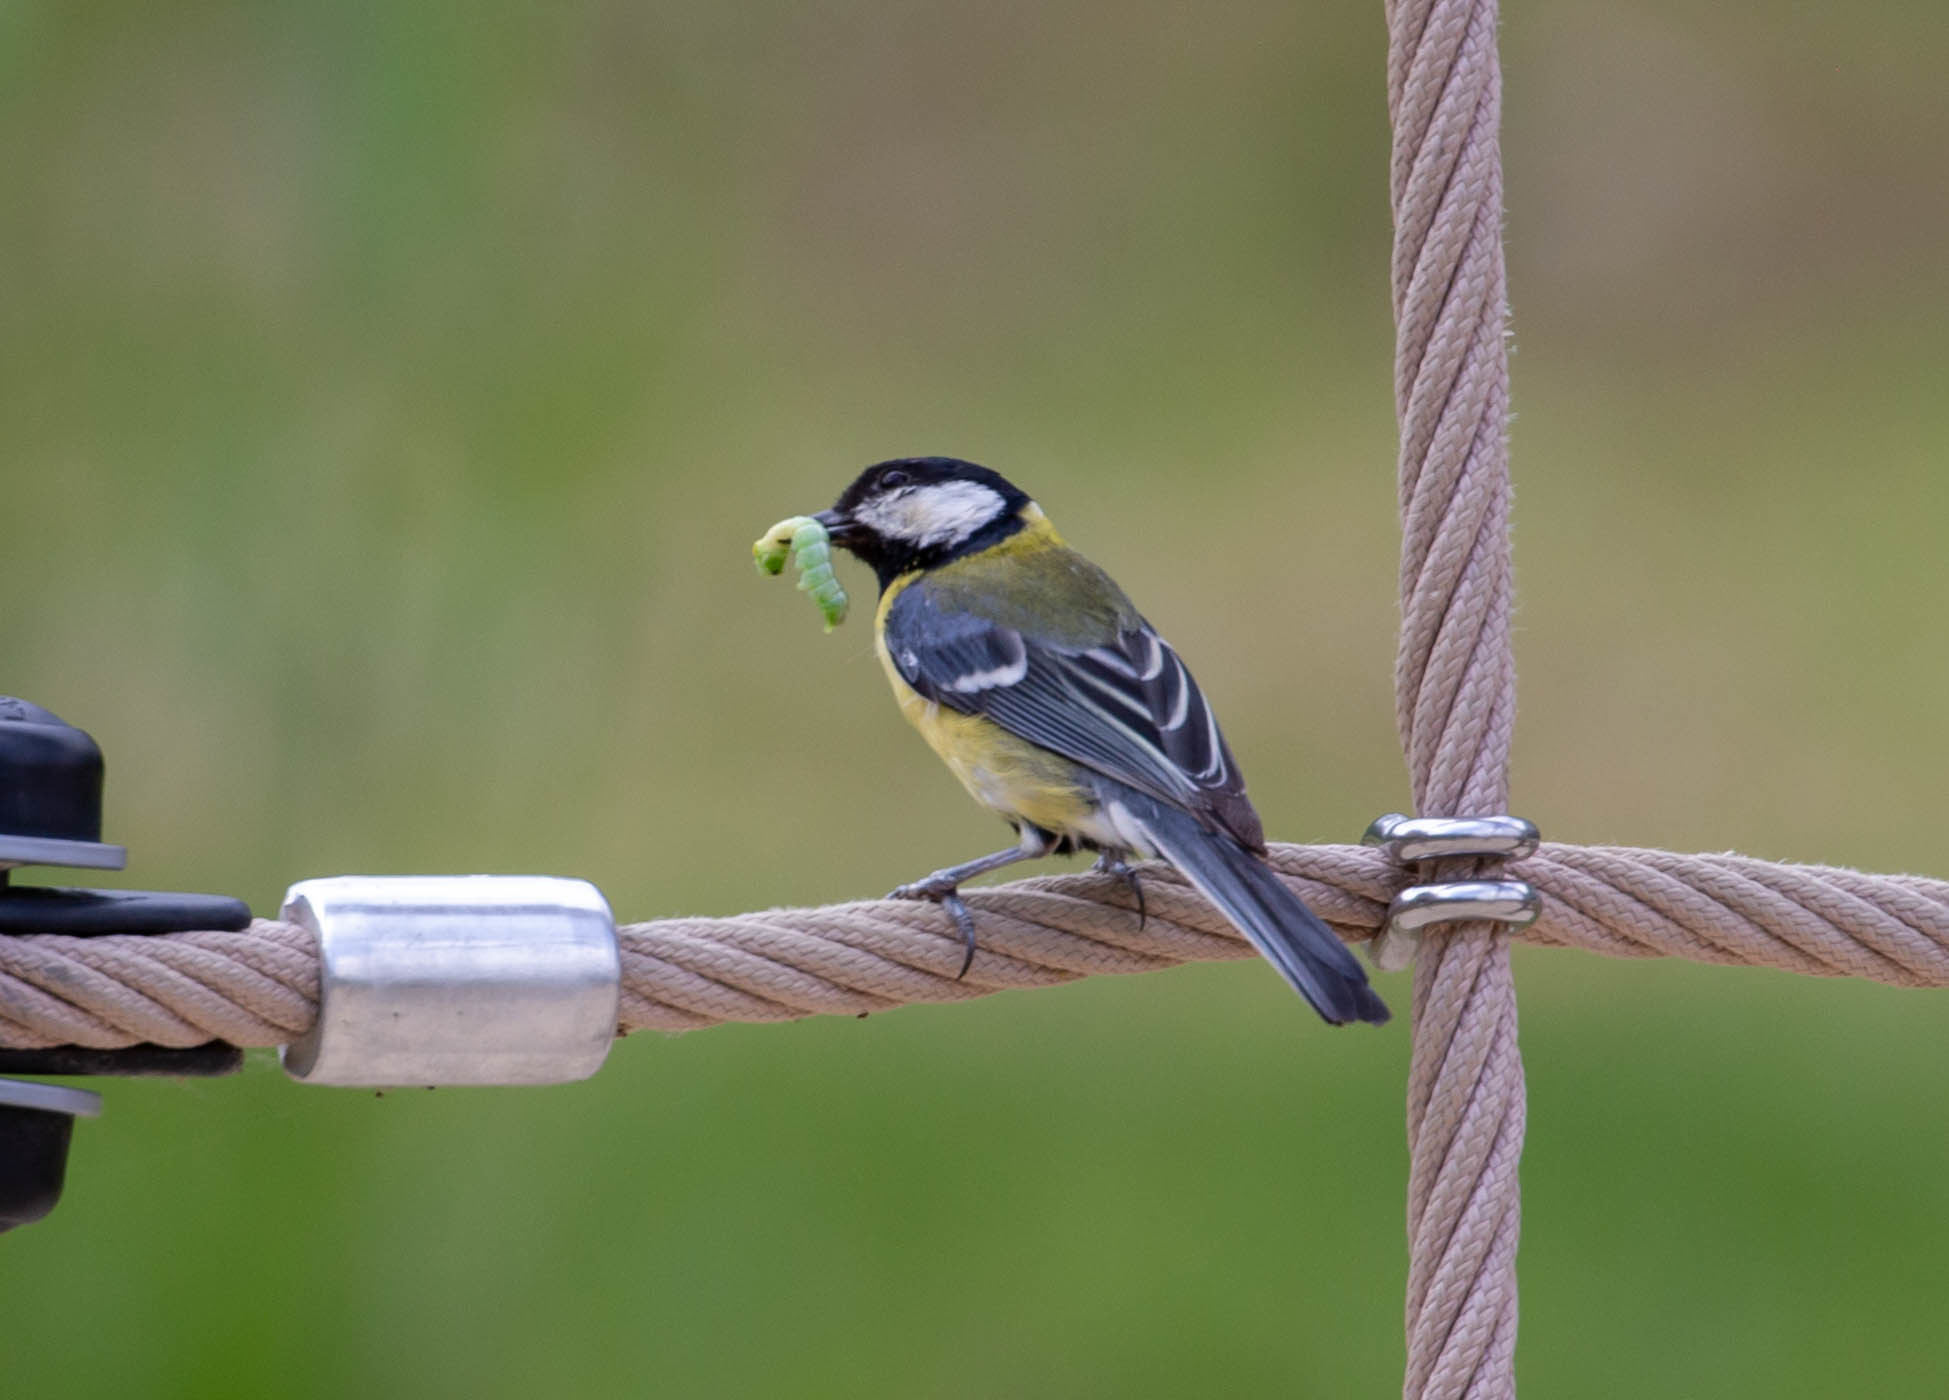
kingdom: Animalia
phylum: Chordata
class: Aves
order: Passeriformes
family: Paridae
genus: Parus
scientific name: Parus major
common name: Great tit
